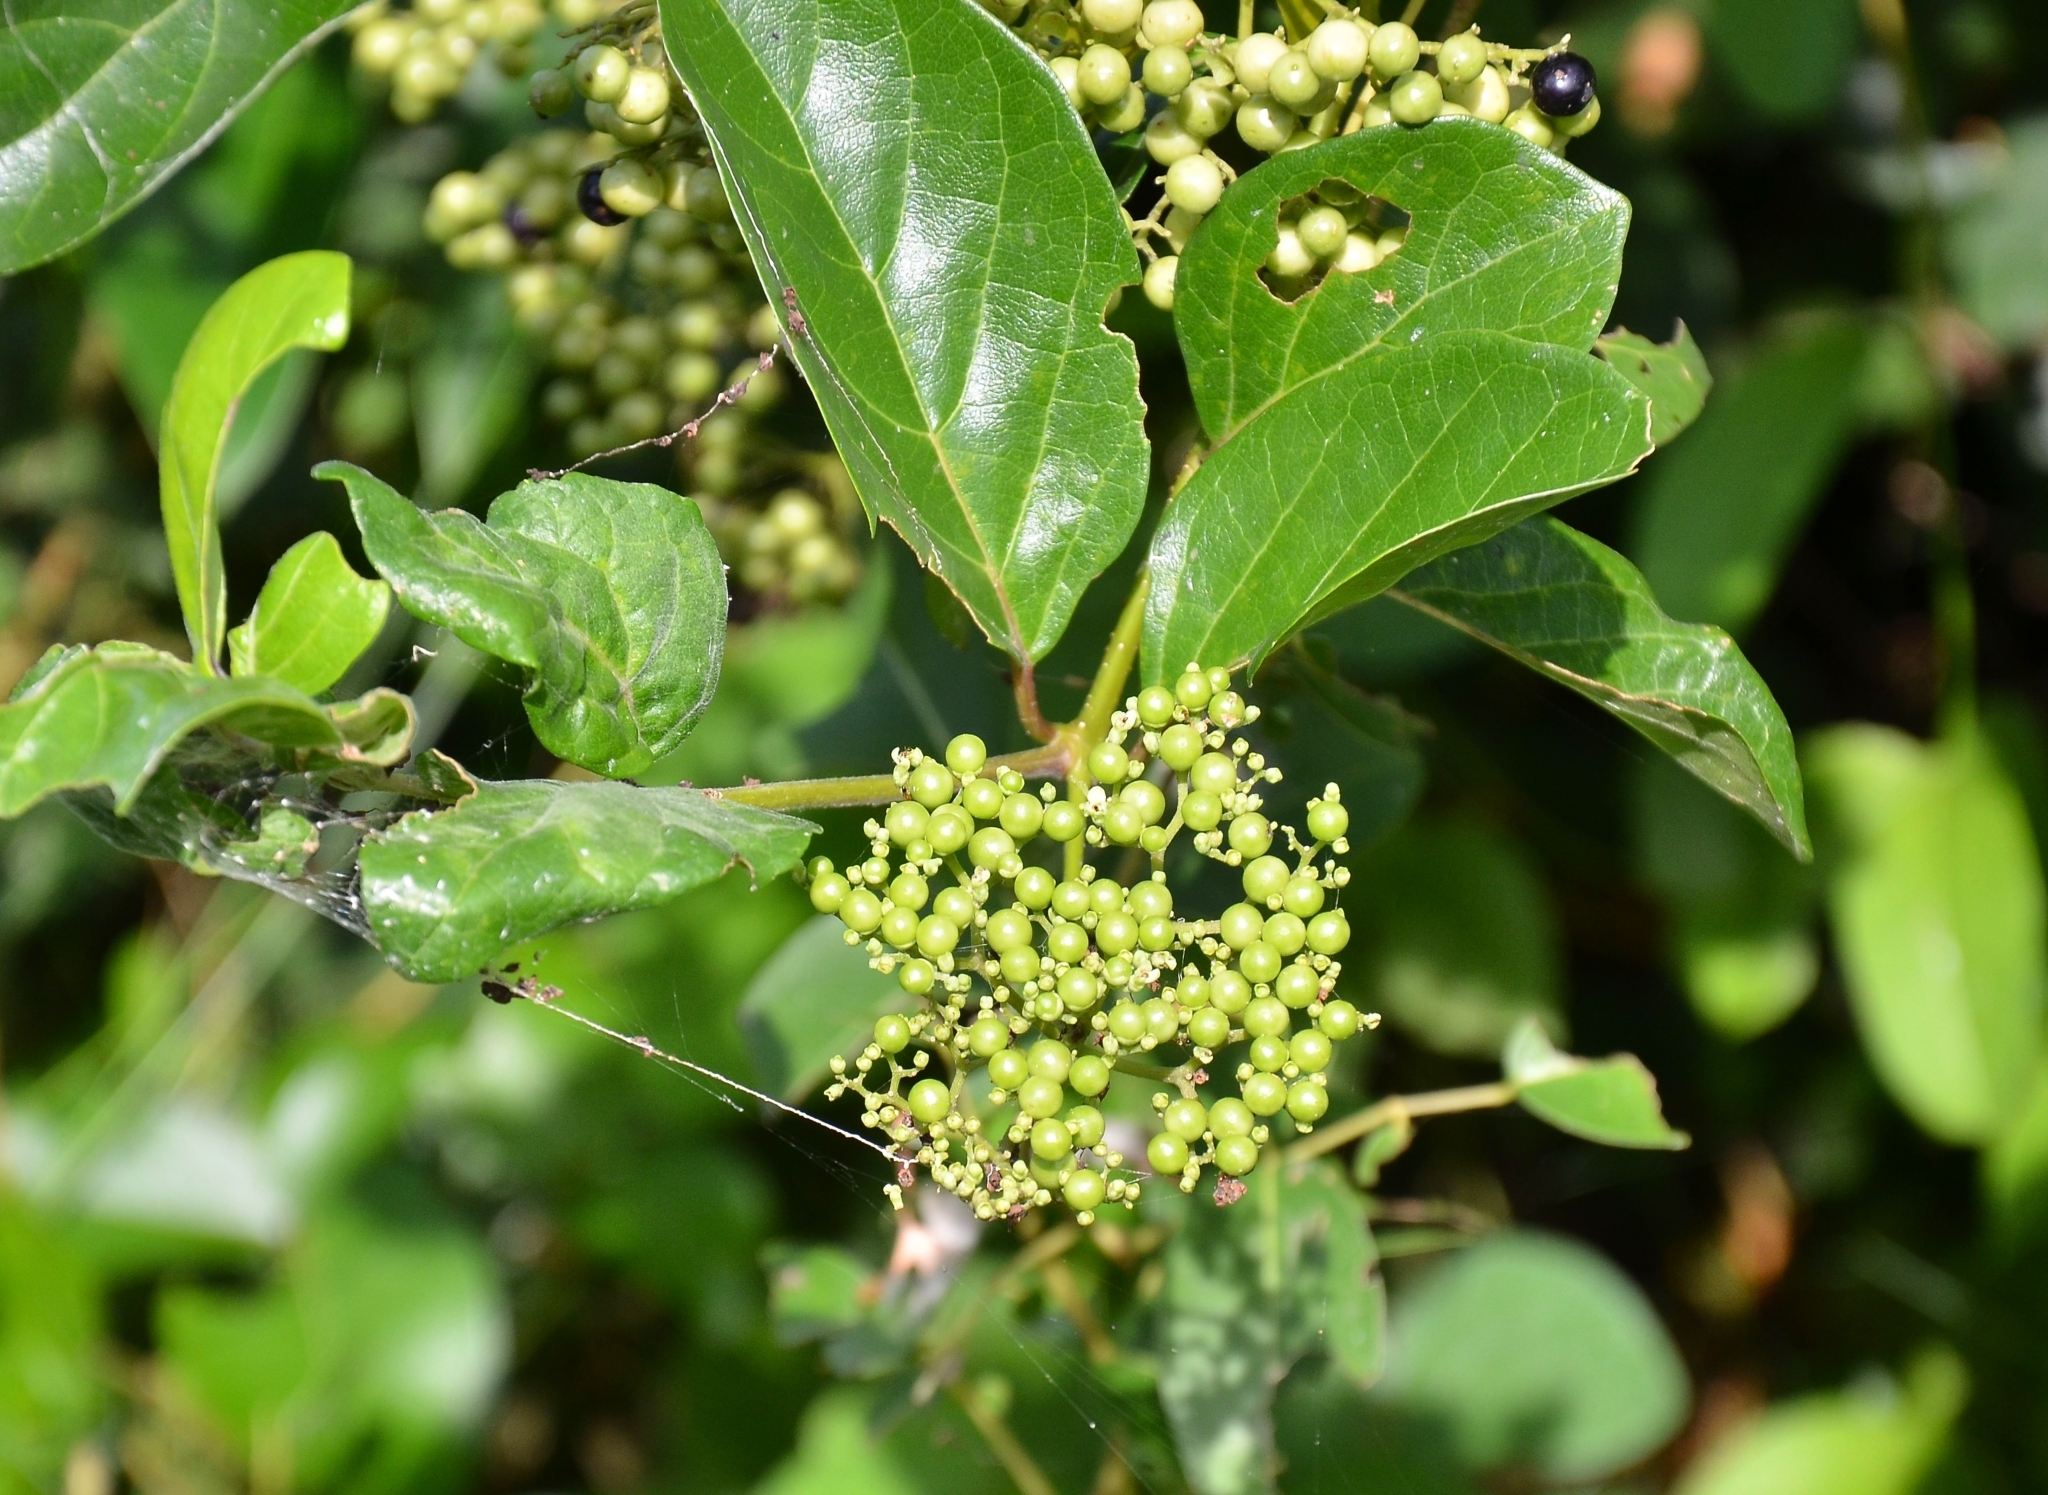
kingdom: Plantae
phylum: Tracheophyta
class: Magnoliopsida
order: Lamiales
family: Lamiaceae
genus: Premna
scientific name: Premna serratifolia
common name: Bastard guelder
